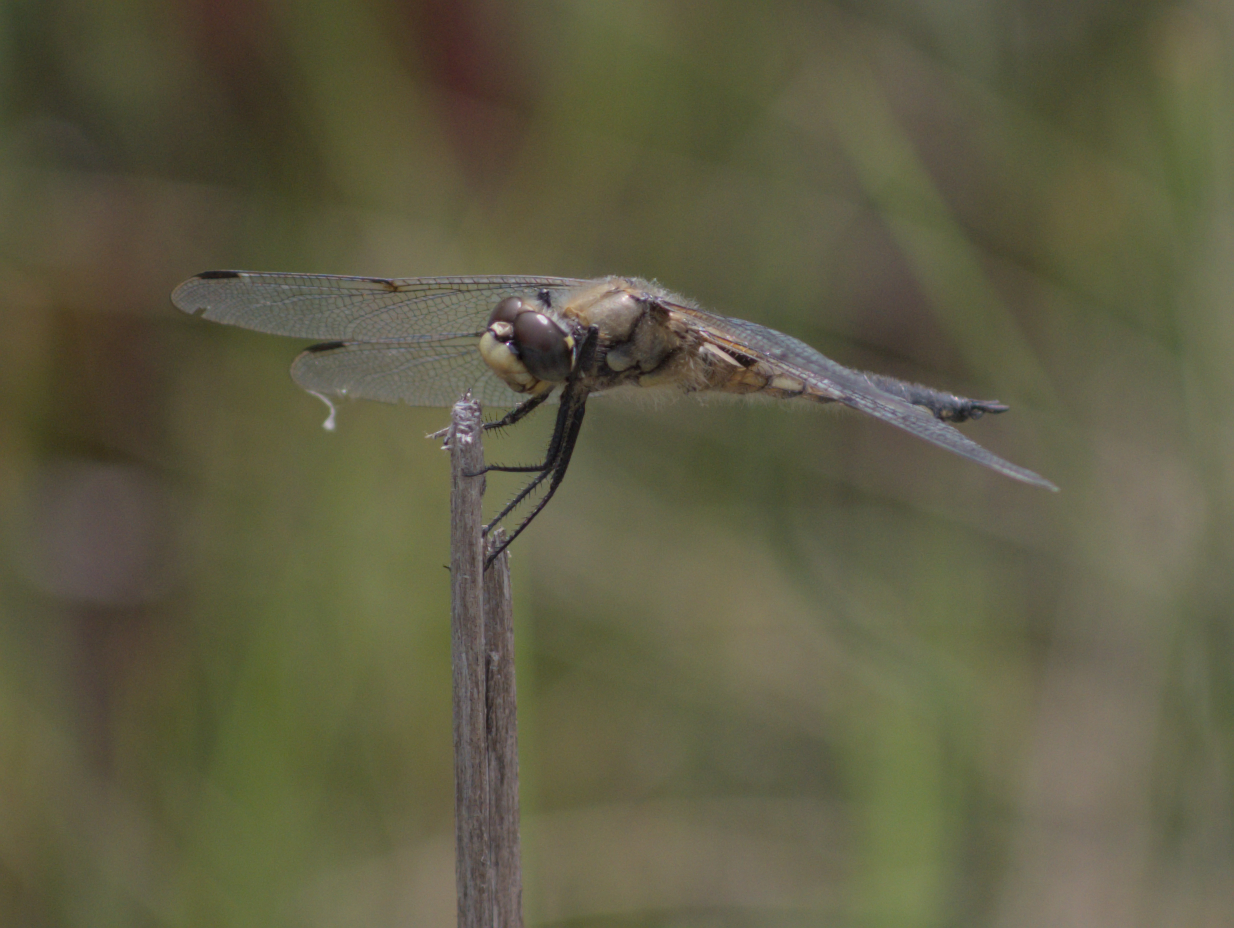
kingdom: Animalia
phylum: Arthropoda
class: Insecta
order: Odonata
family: Libellulidae
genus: Libellula
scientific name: Libellula quadrimaculata
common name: Four-spotted chaser
